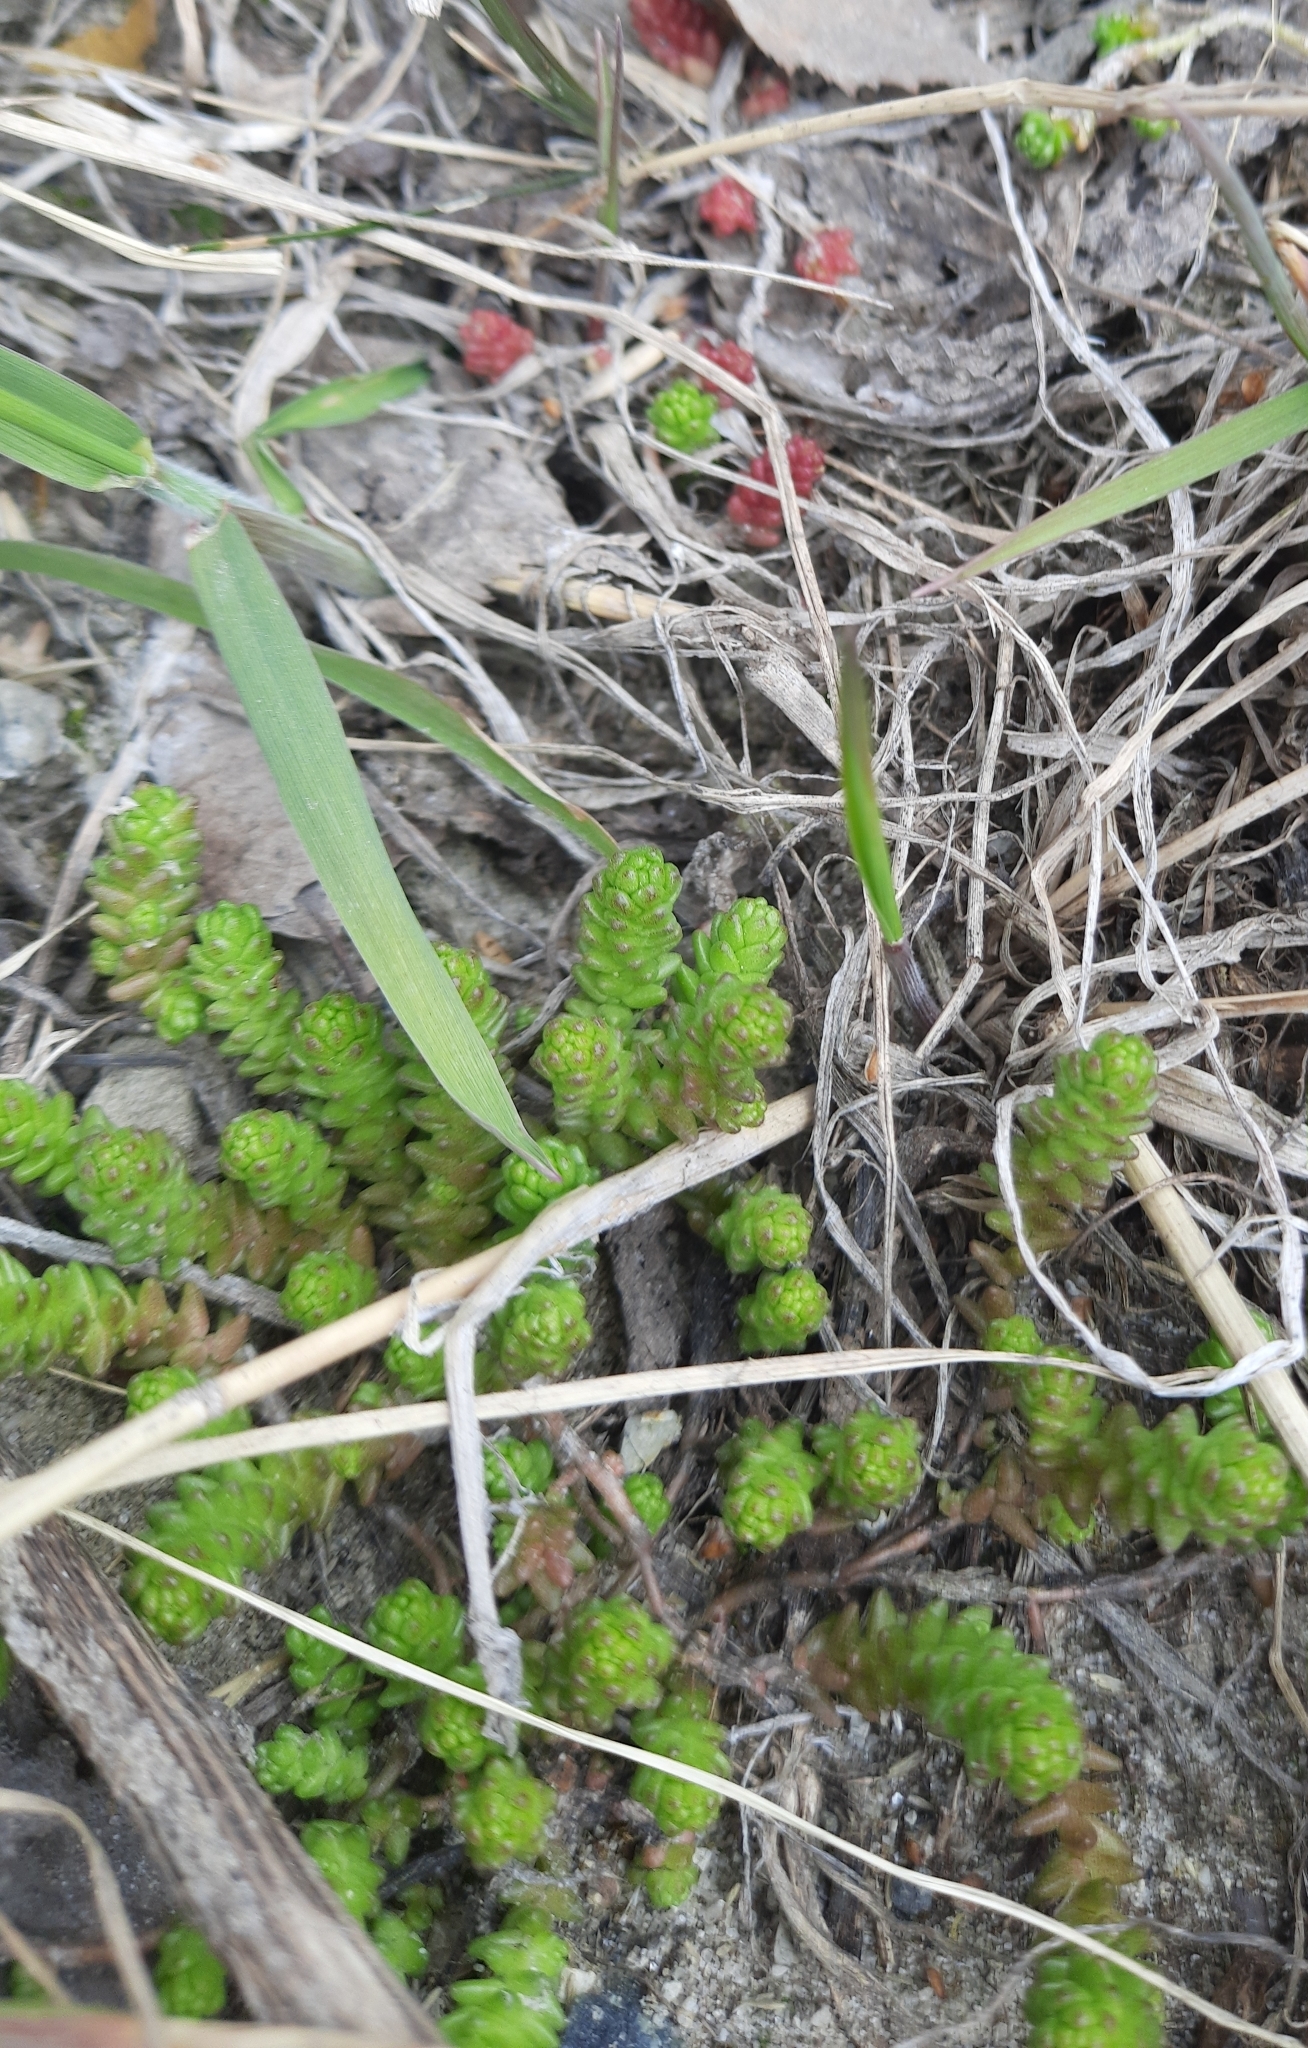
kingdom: Plantae
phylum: Tracheophyta
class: Magnoliopsida
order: Saxifragales
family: Crassulaceae
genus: Sedum
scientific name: Sedum acre
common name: Biting stonecrop
